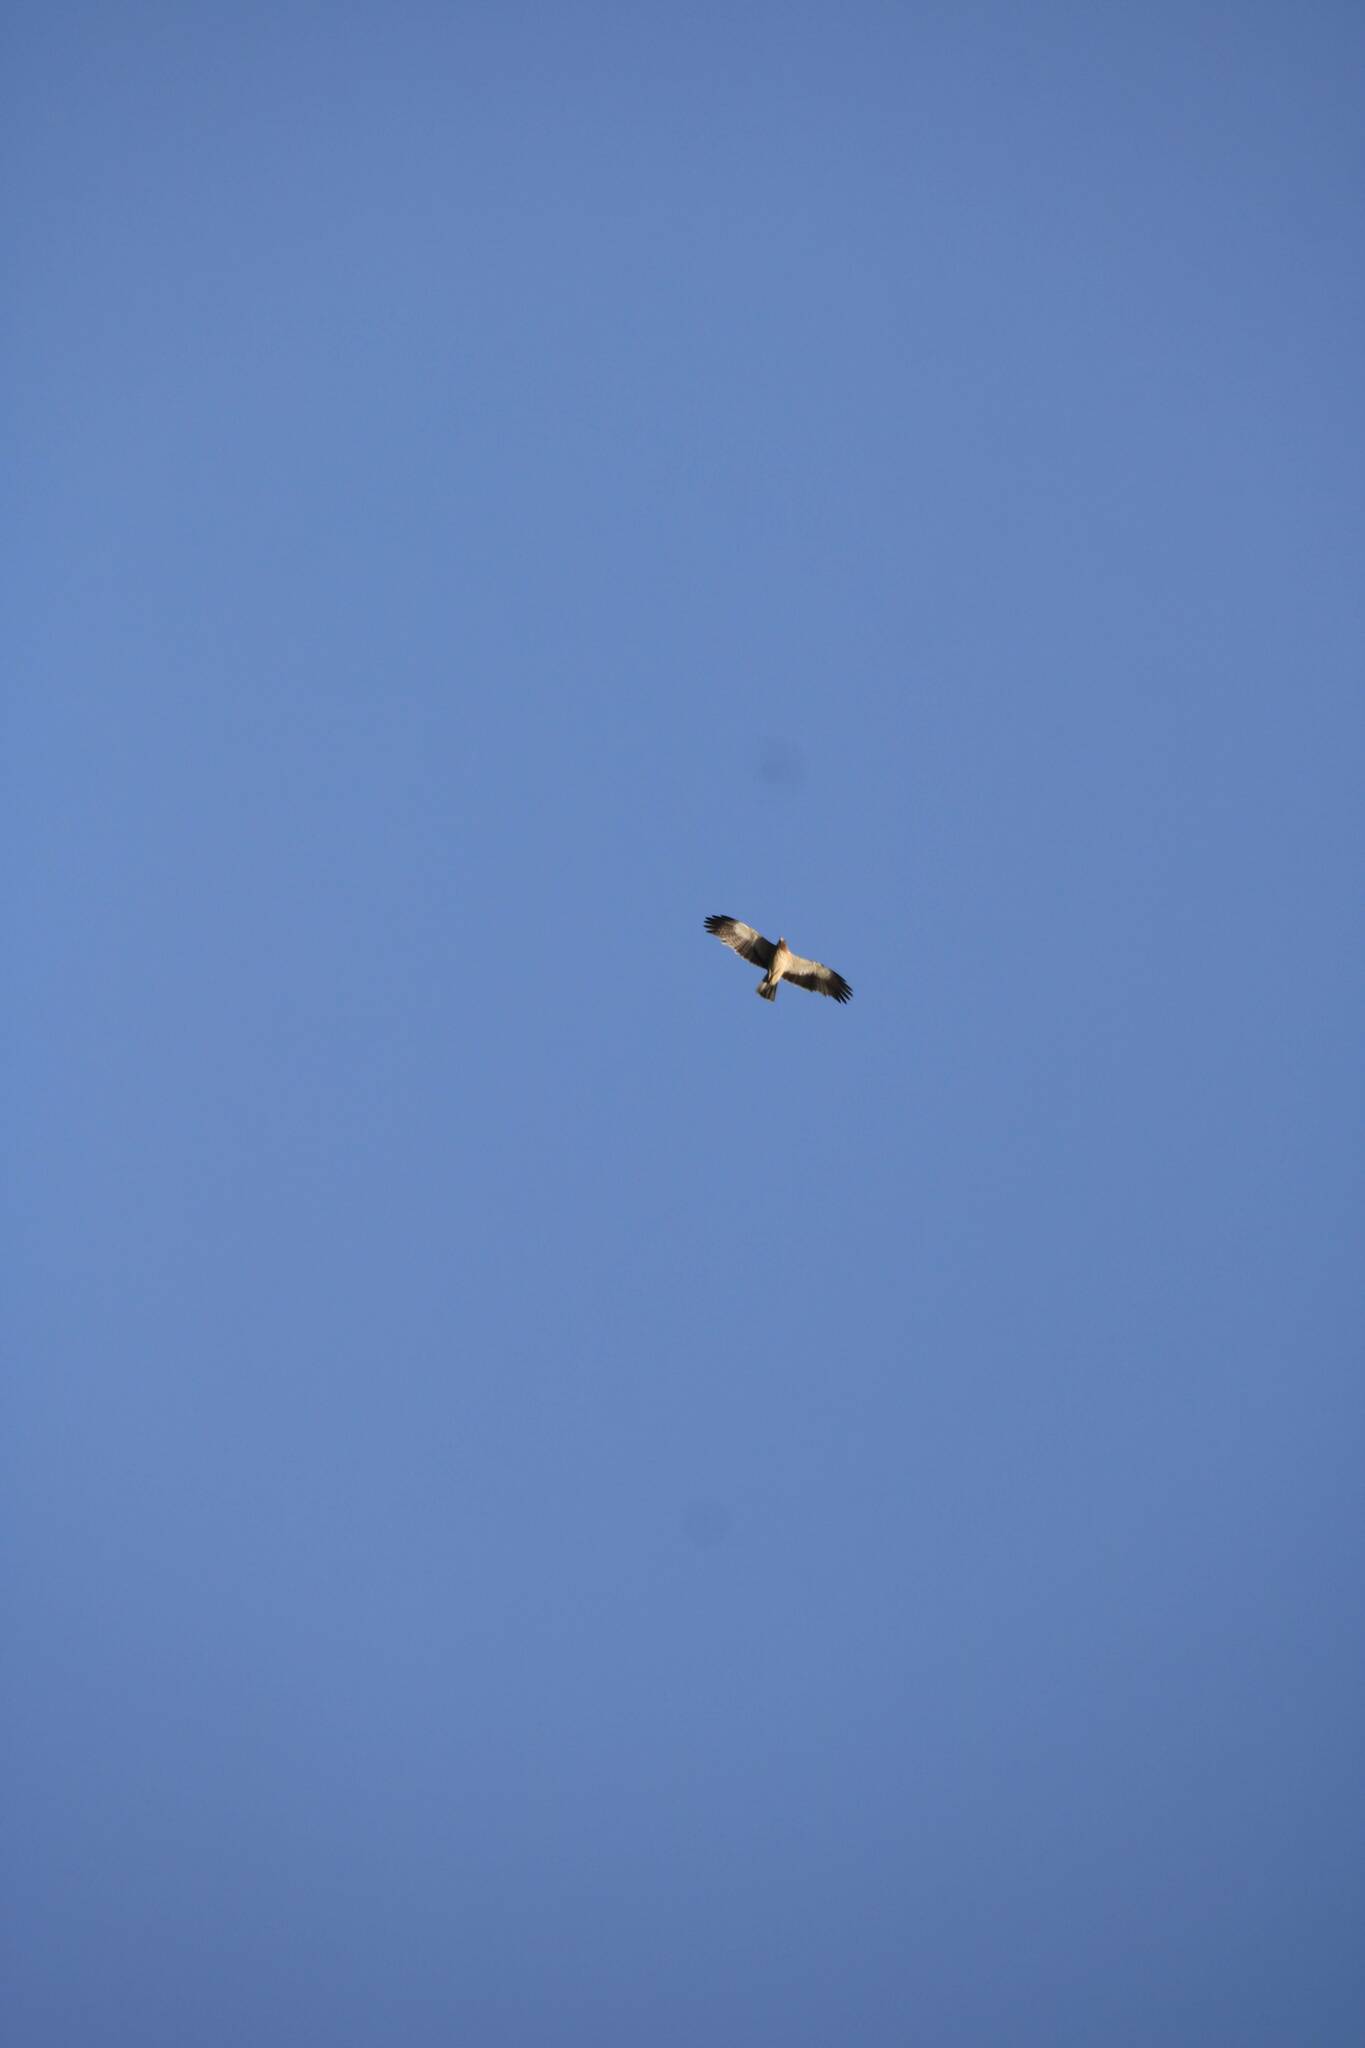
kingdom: Animalia
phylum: Chordata
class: Aves
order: Accipitriformes
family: Accipitridae
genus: Hieraaetus
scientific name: Hieraaetus pennatus
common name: Booted eagle
